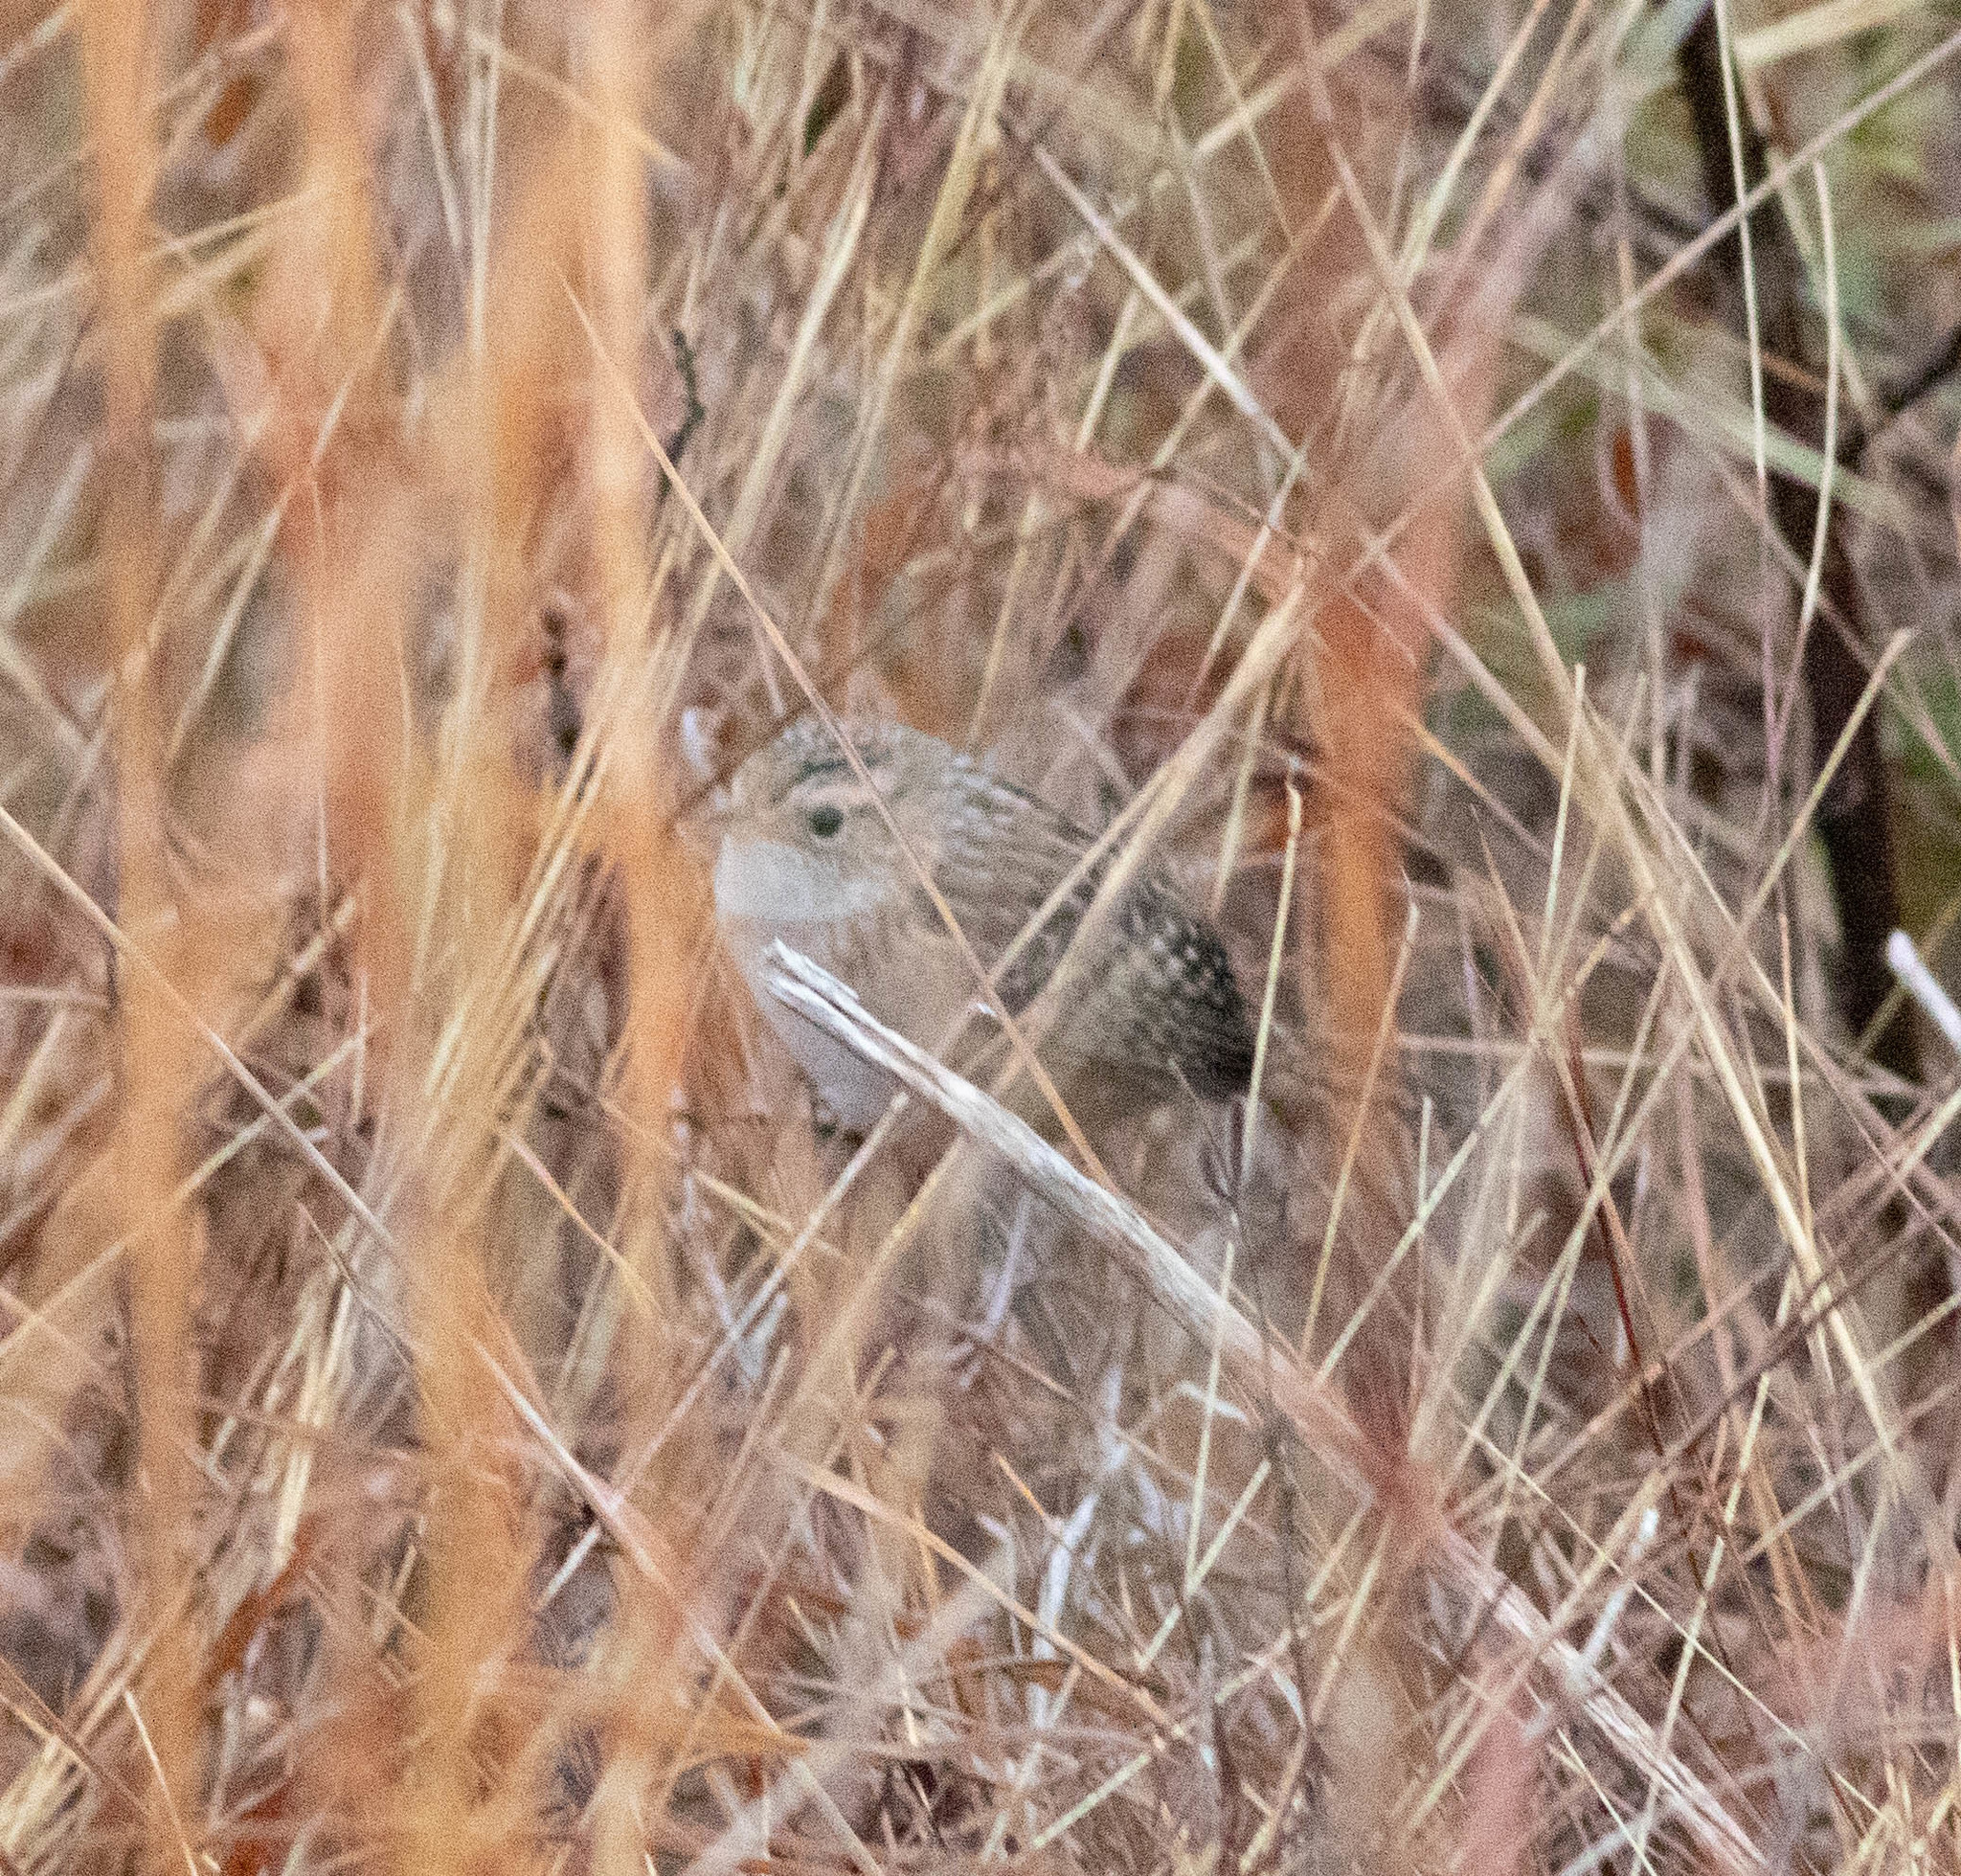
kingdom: Animalia
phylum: Chordata
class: Aves
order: Passeriformes
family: Troglodytidae
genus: Cistothorus
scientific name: Cistothorus platensis
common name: Sedge wren
